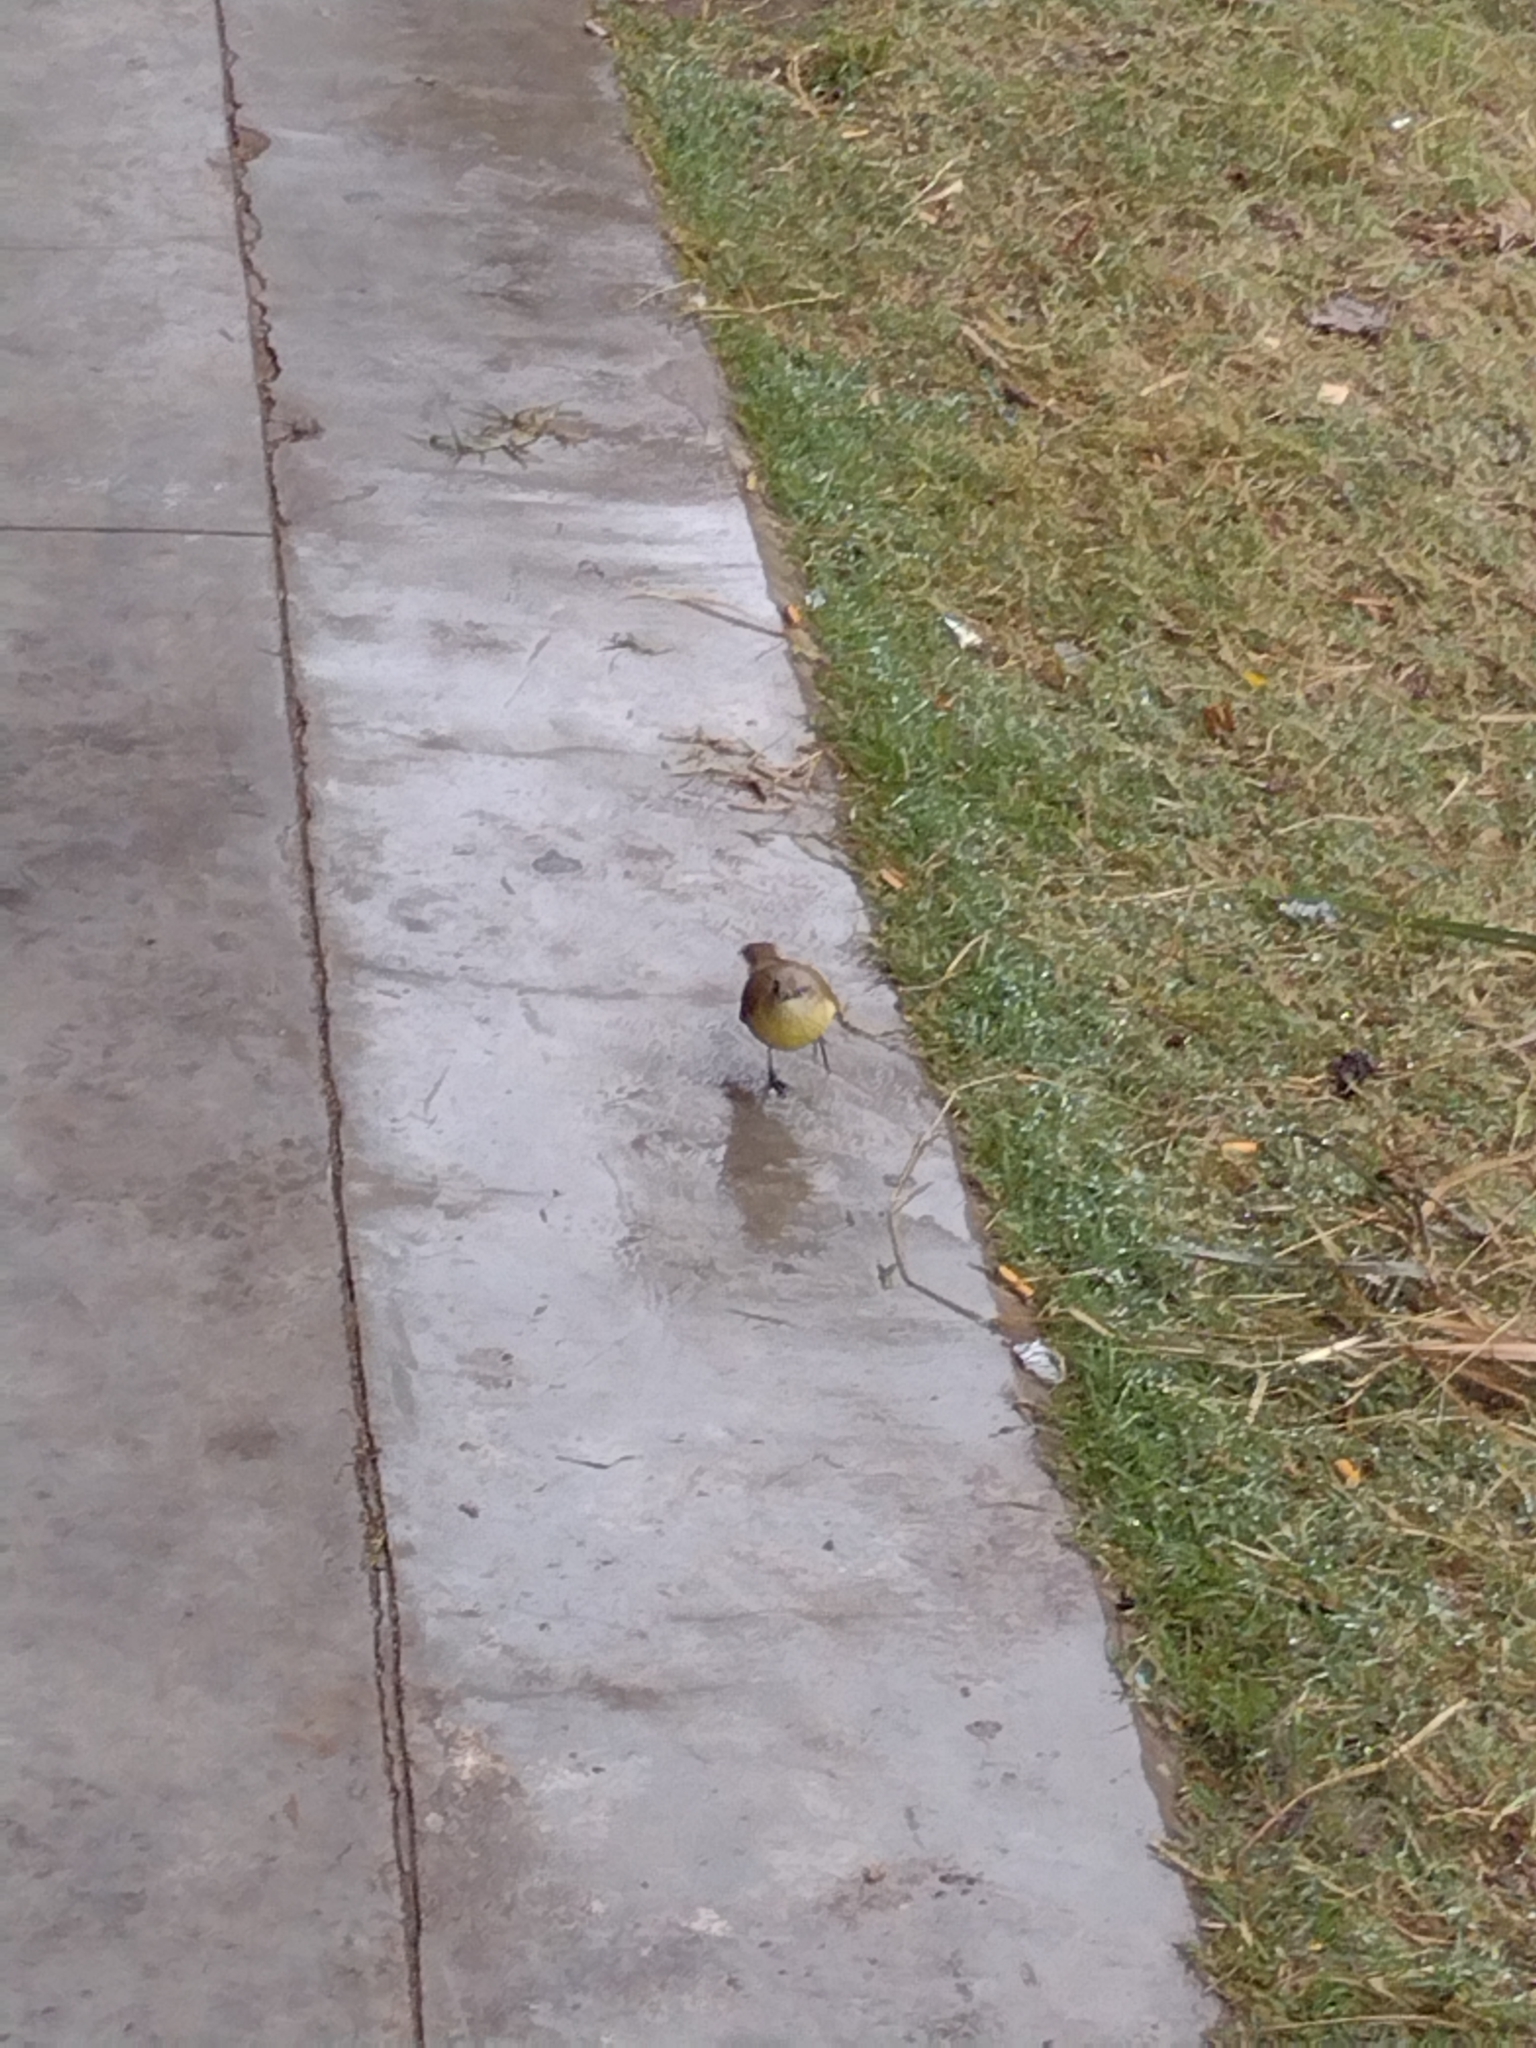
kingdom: Animalia
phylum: Chordata
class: Aves
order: Passeriformes
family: Tyrannidae
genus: Machetornis
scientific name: Machetornis rixosa
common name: Cattle tyrant
